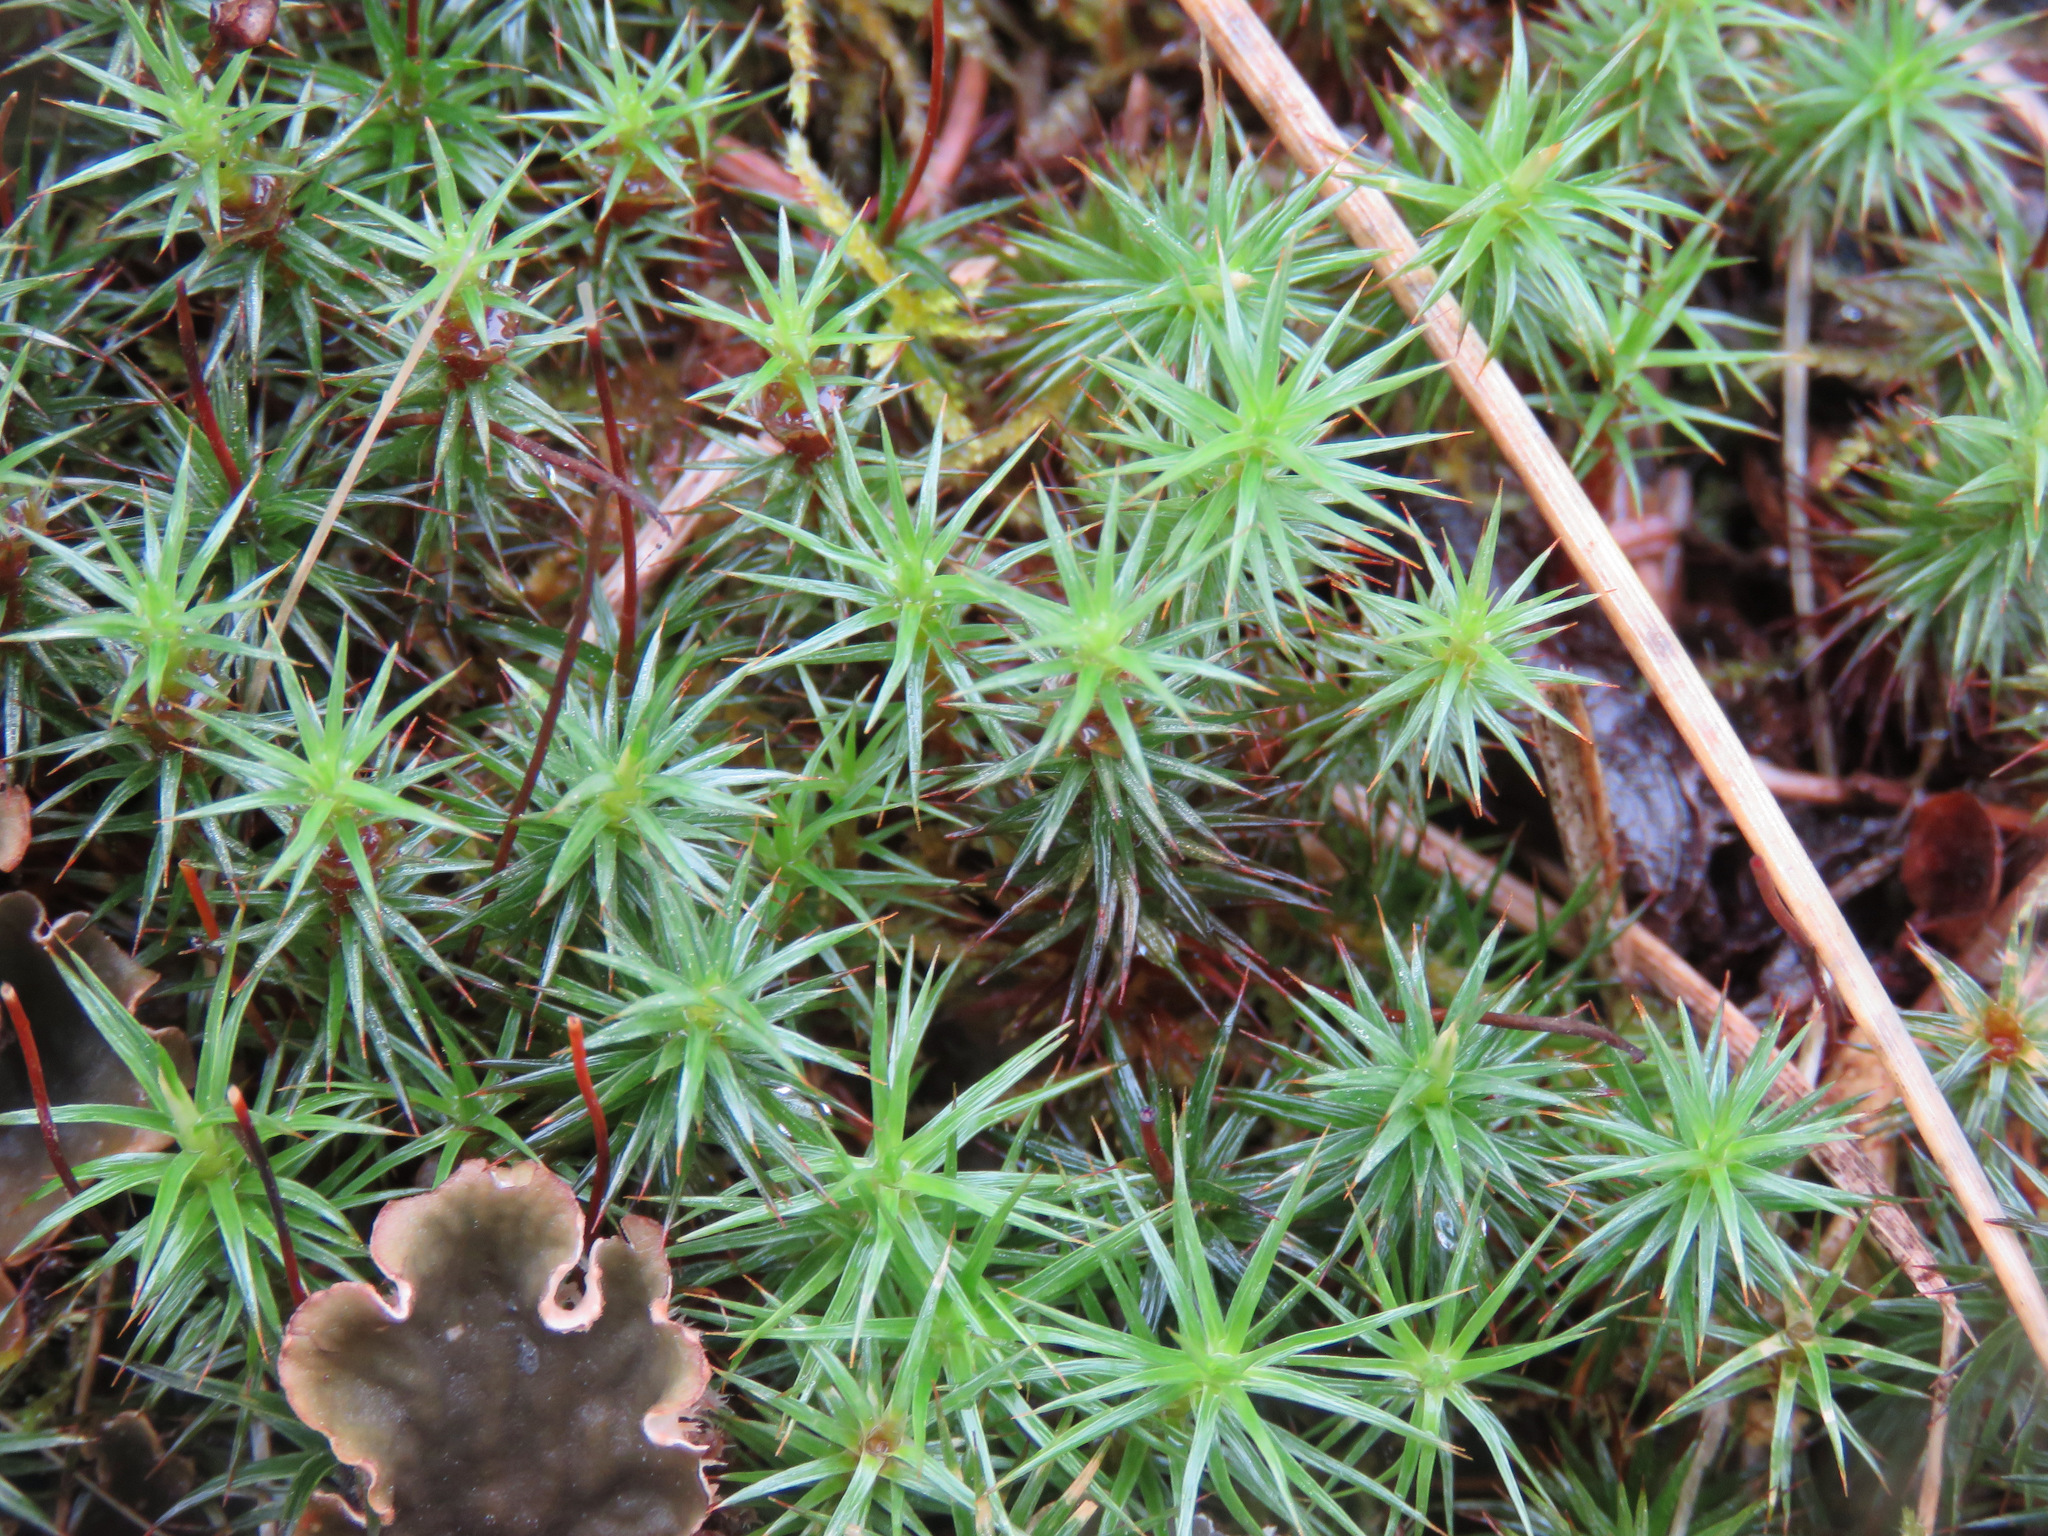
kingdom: Plantae
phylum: Bryophyta
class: Polytrichopsida
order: Polytrichales
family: Polytrichaceae
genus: Polytrichum
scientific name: Polytrichum juniperinum
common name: Juniper haircap moss
